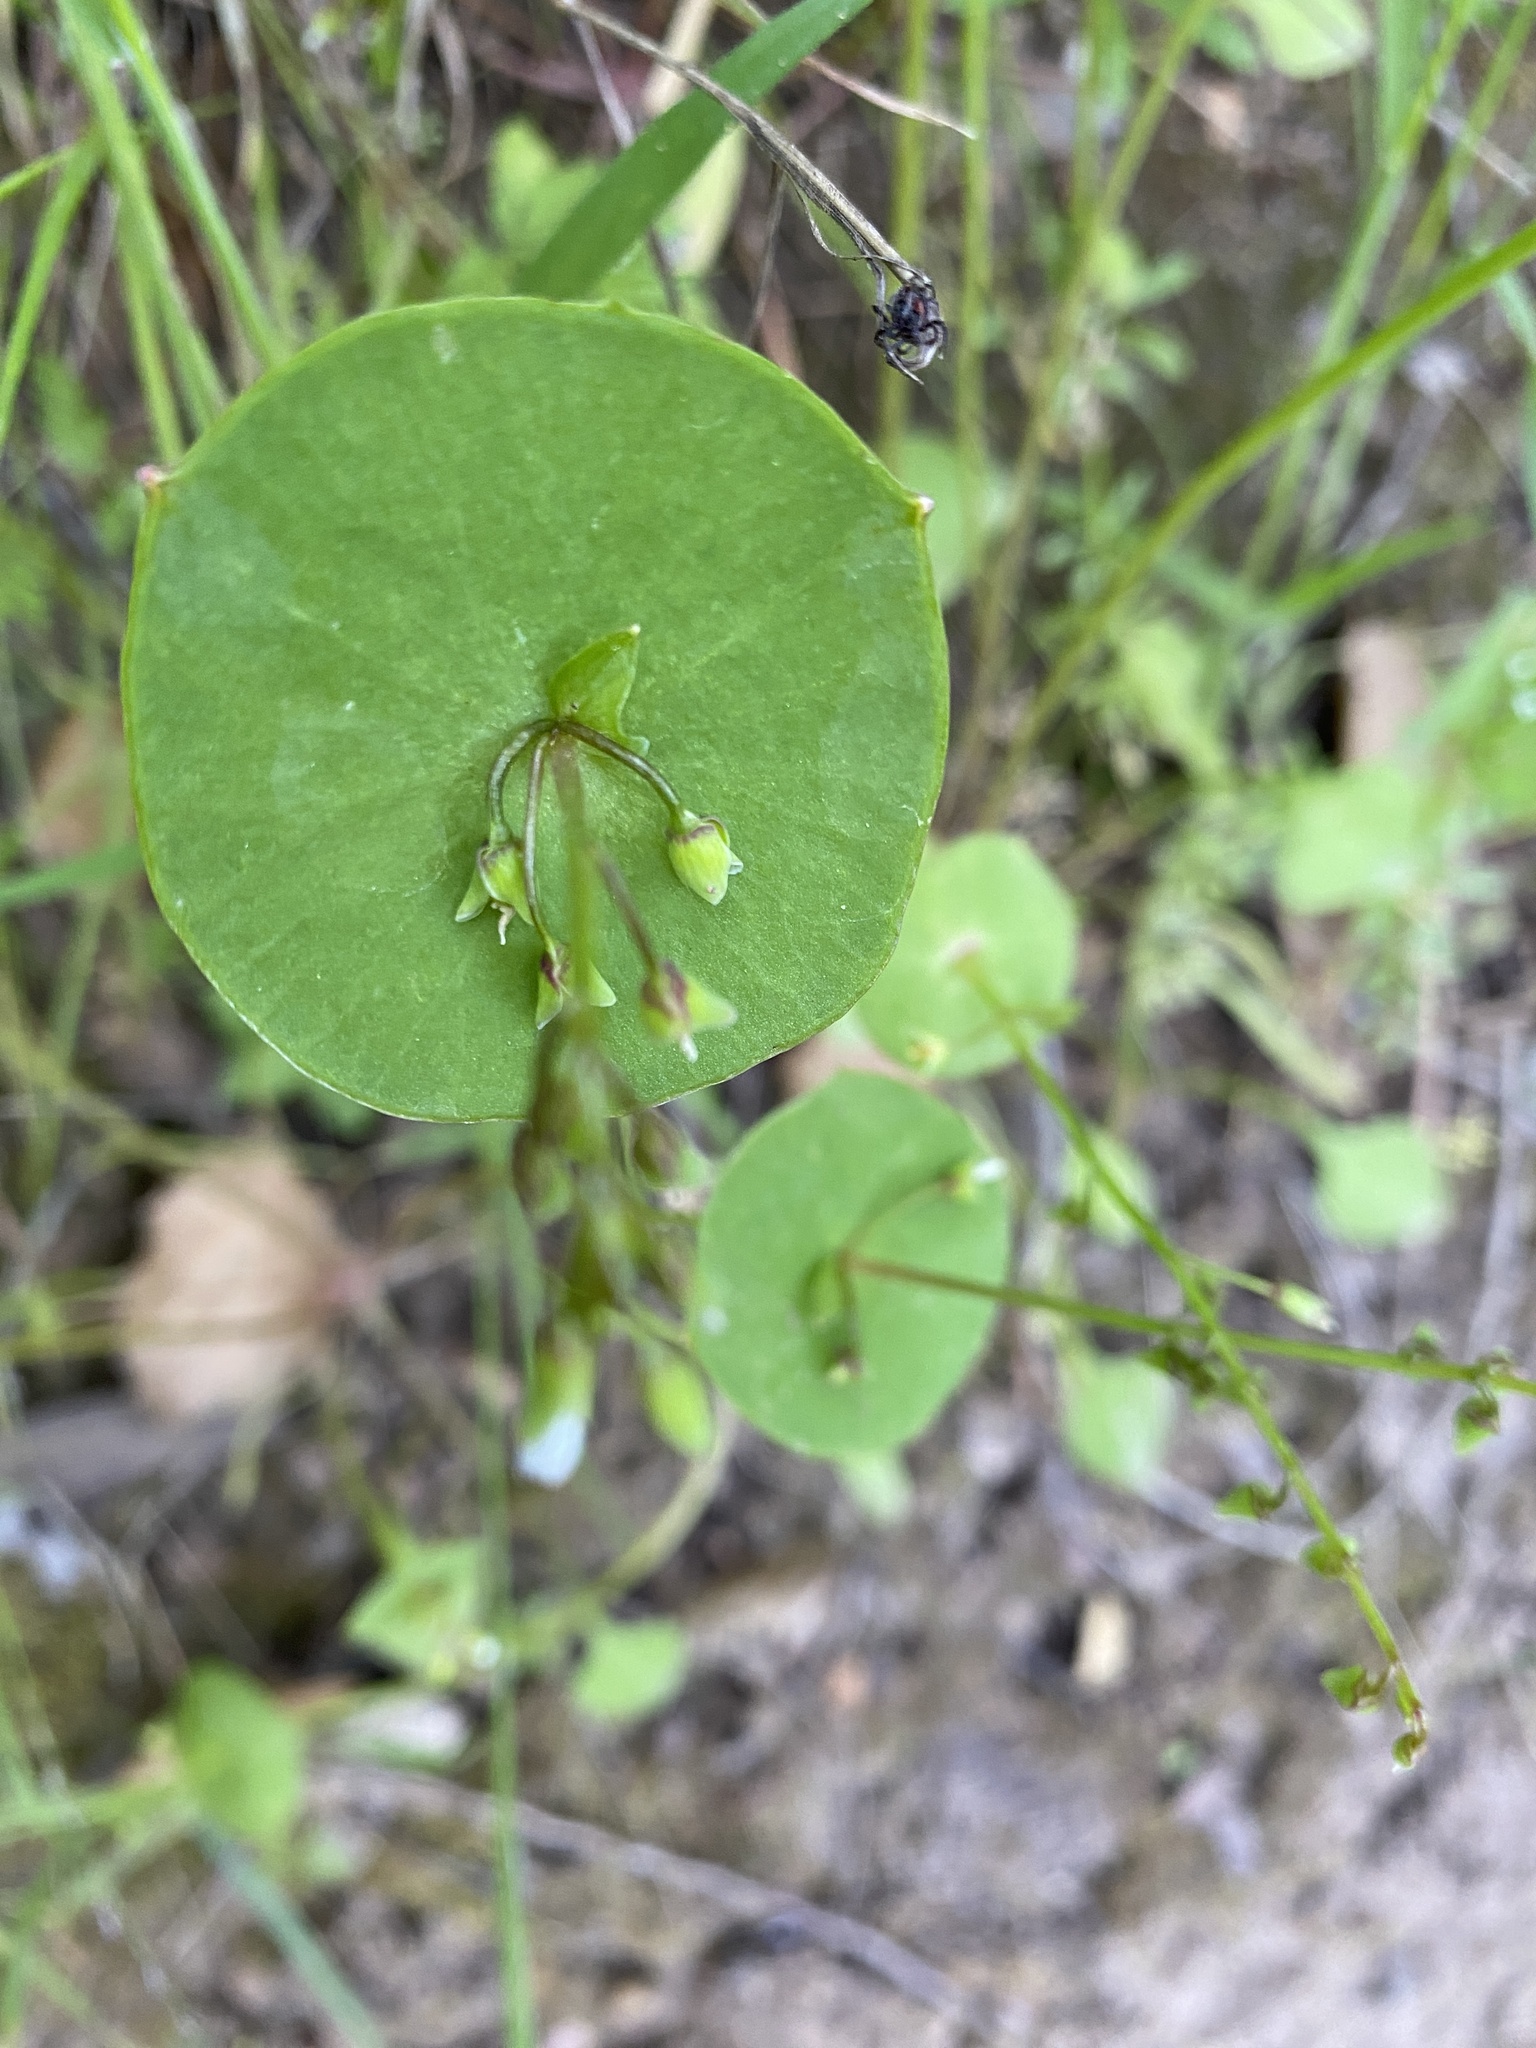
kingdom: Plantae
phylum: Tracheophyta
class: Magnoliopsida
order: Caryophyllales
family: Montiaceae
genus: Claytonia
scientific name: Claytonia perfoliata
